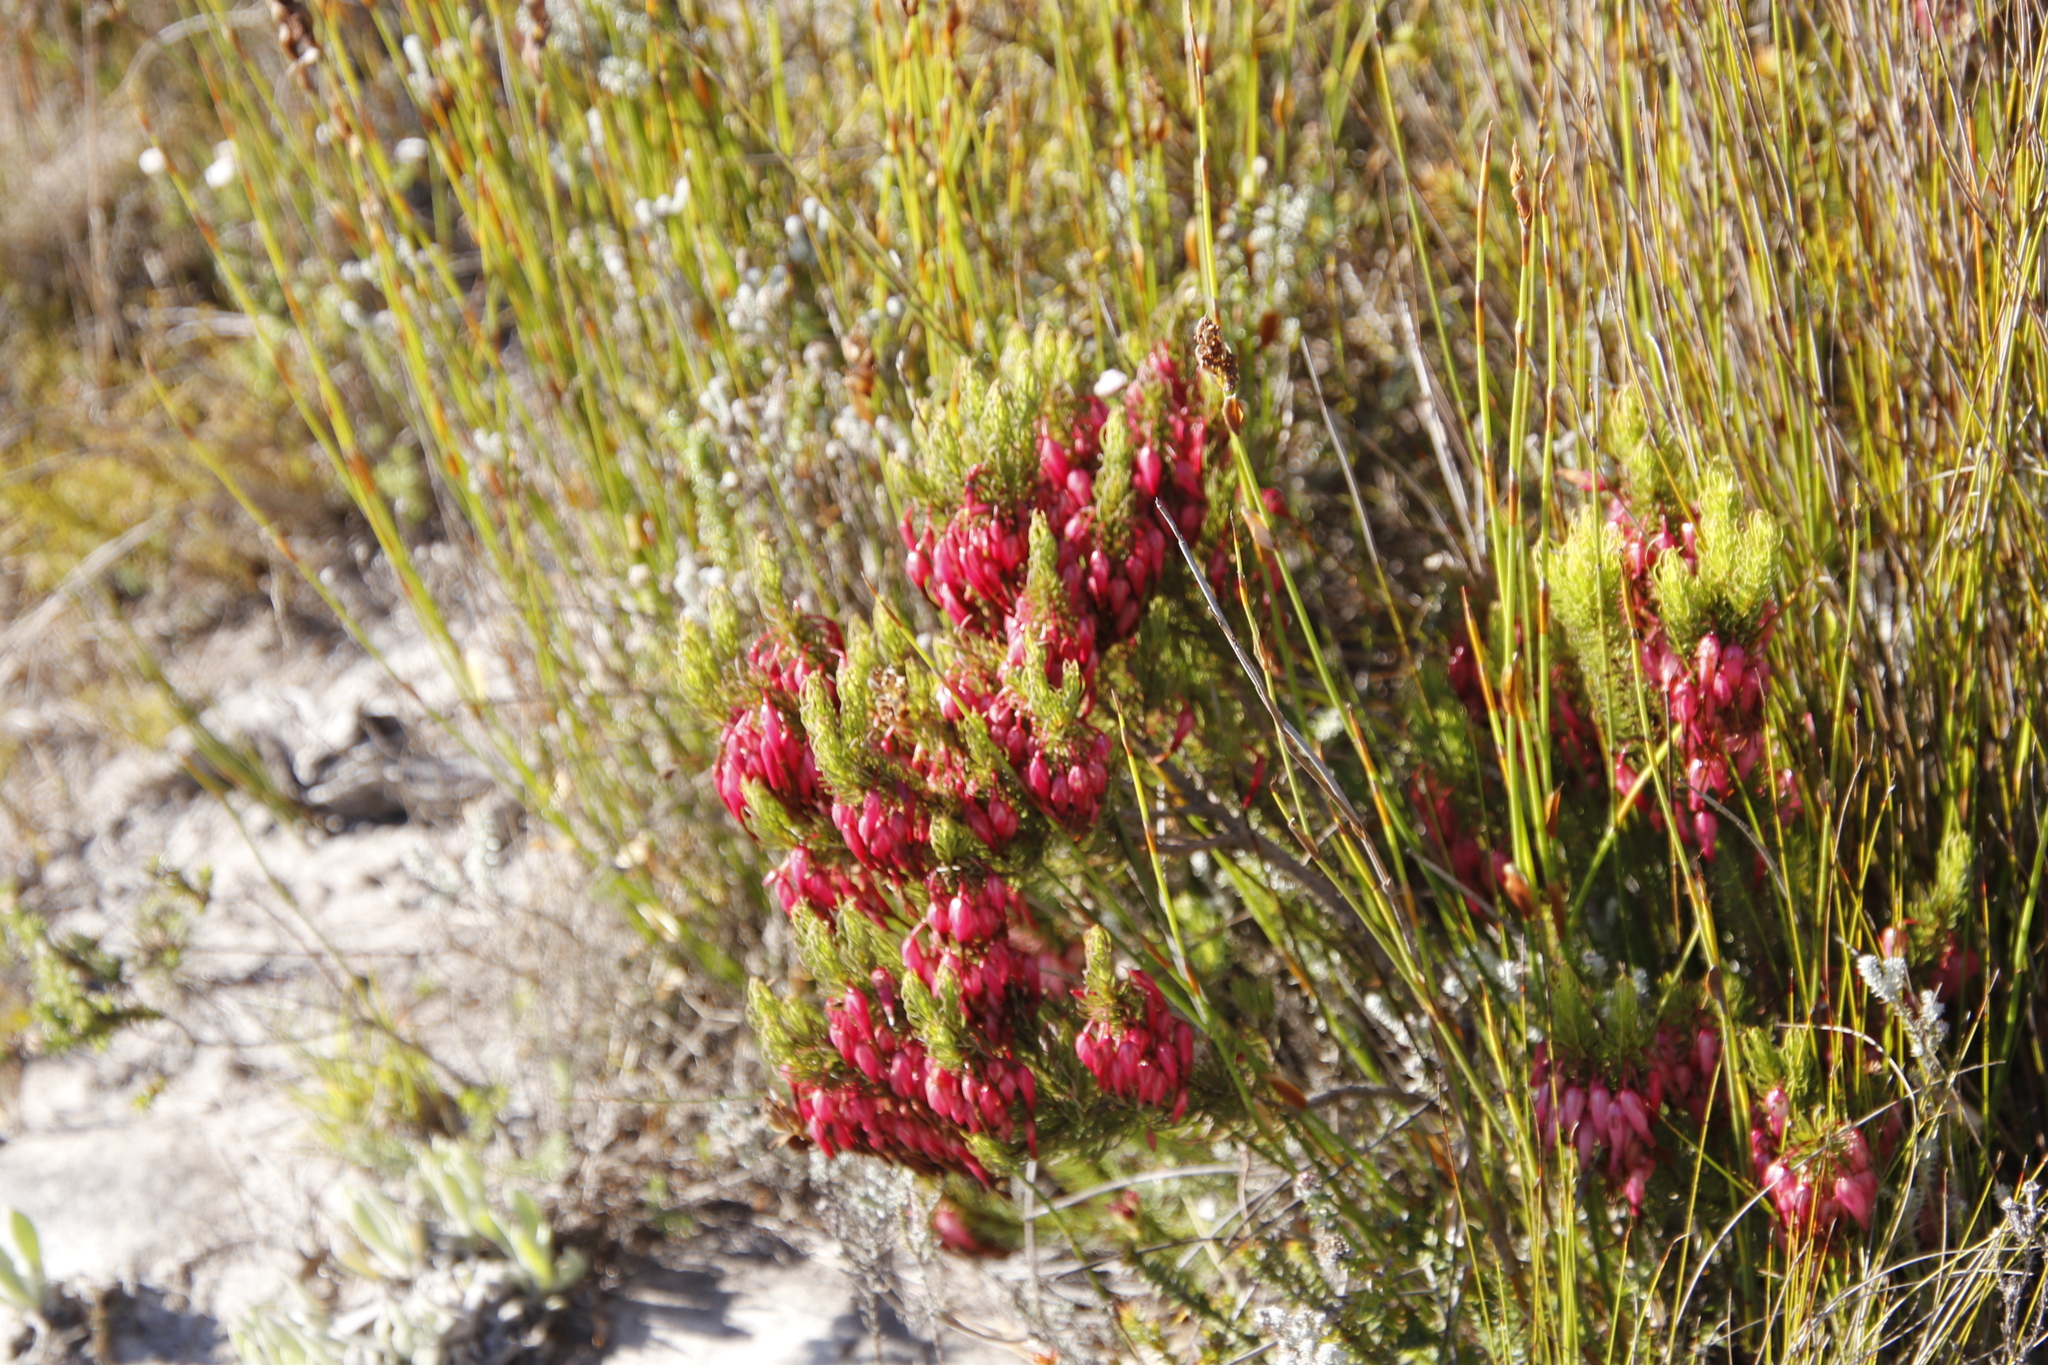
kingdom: Plantae
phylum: Tracheophyta
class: Magnoliopsida
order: Ericales
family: Ericaceae
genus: Erica
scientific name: Erica plukenetii
